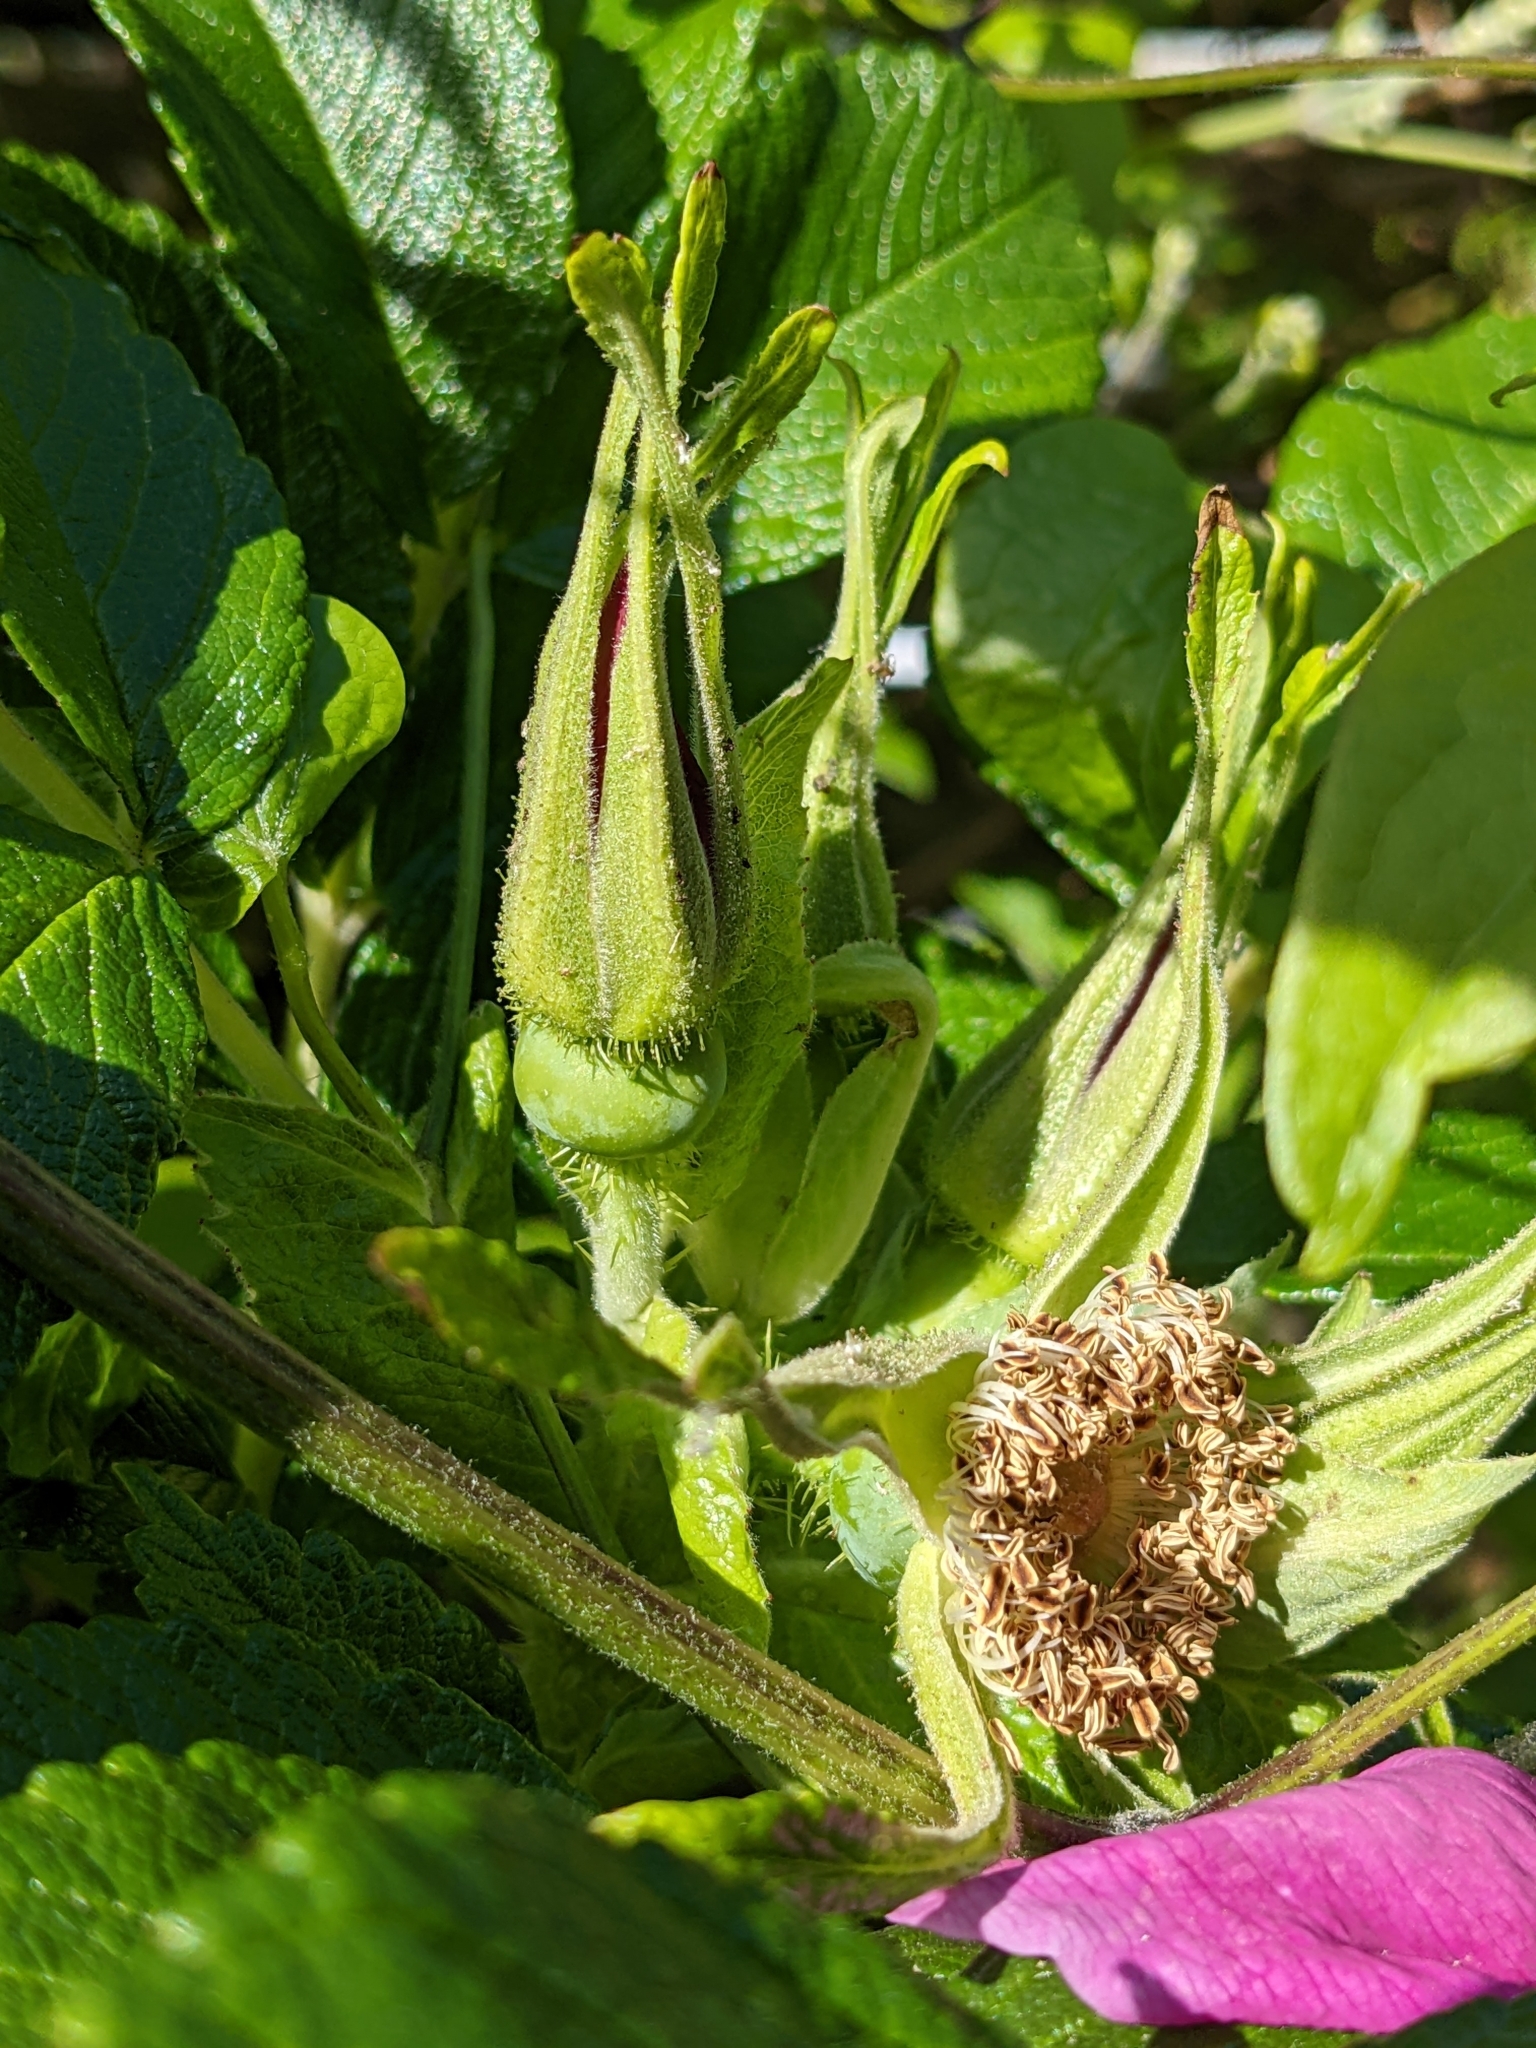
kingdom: Plantae
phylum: Tracheophyta
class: Magnoliopsida
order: Rosales
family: Rosaceae
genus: Rosa
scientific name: Rosa rugosa
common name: Japanese rose
